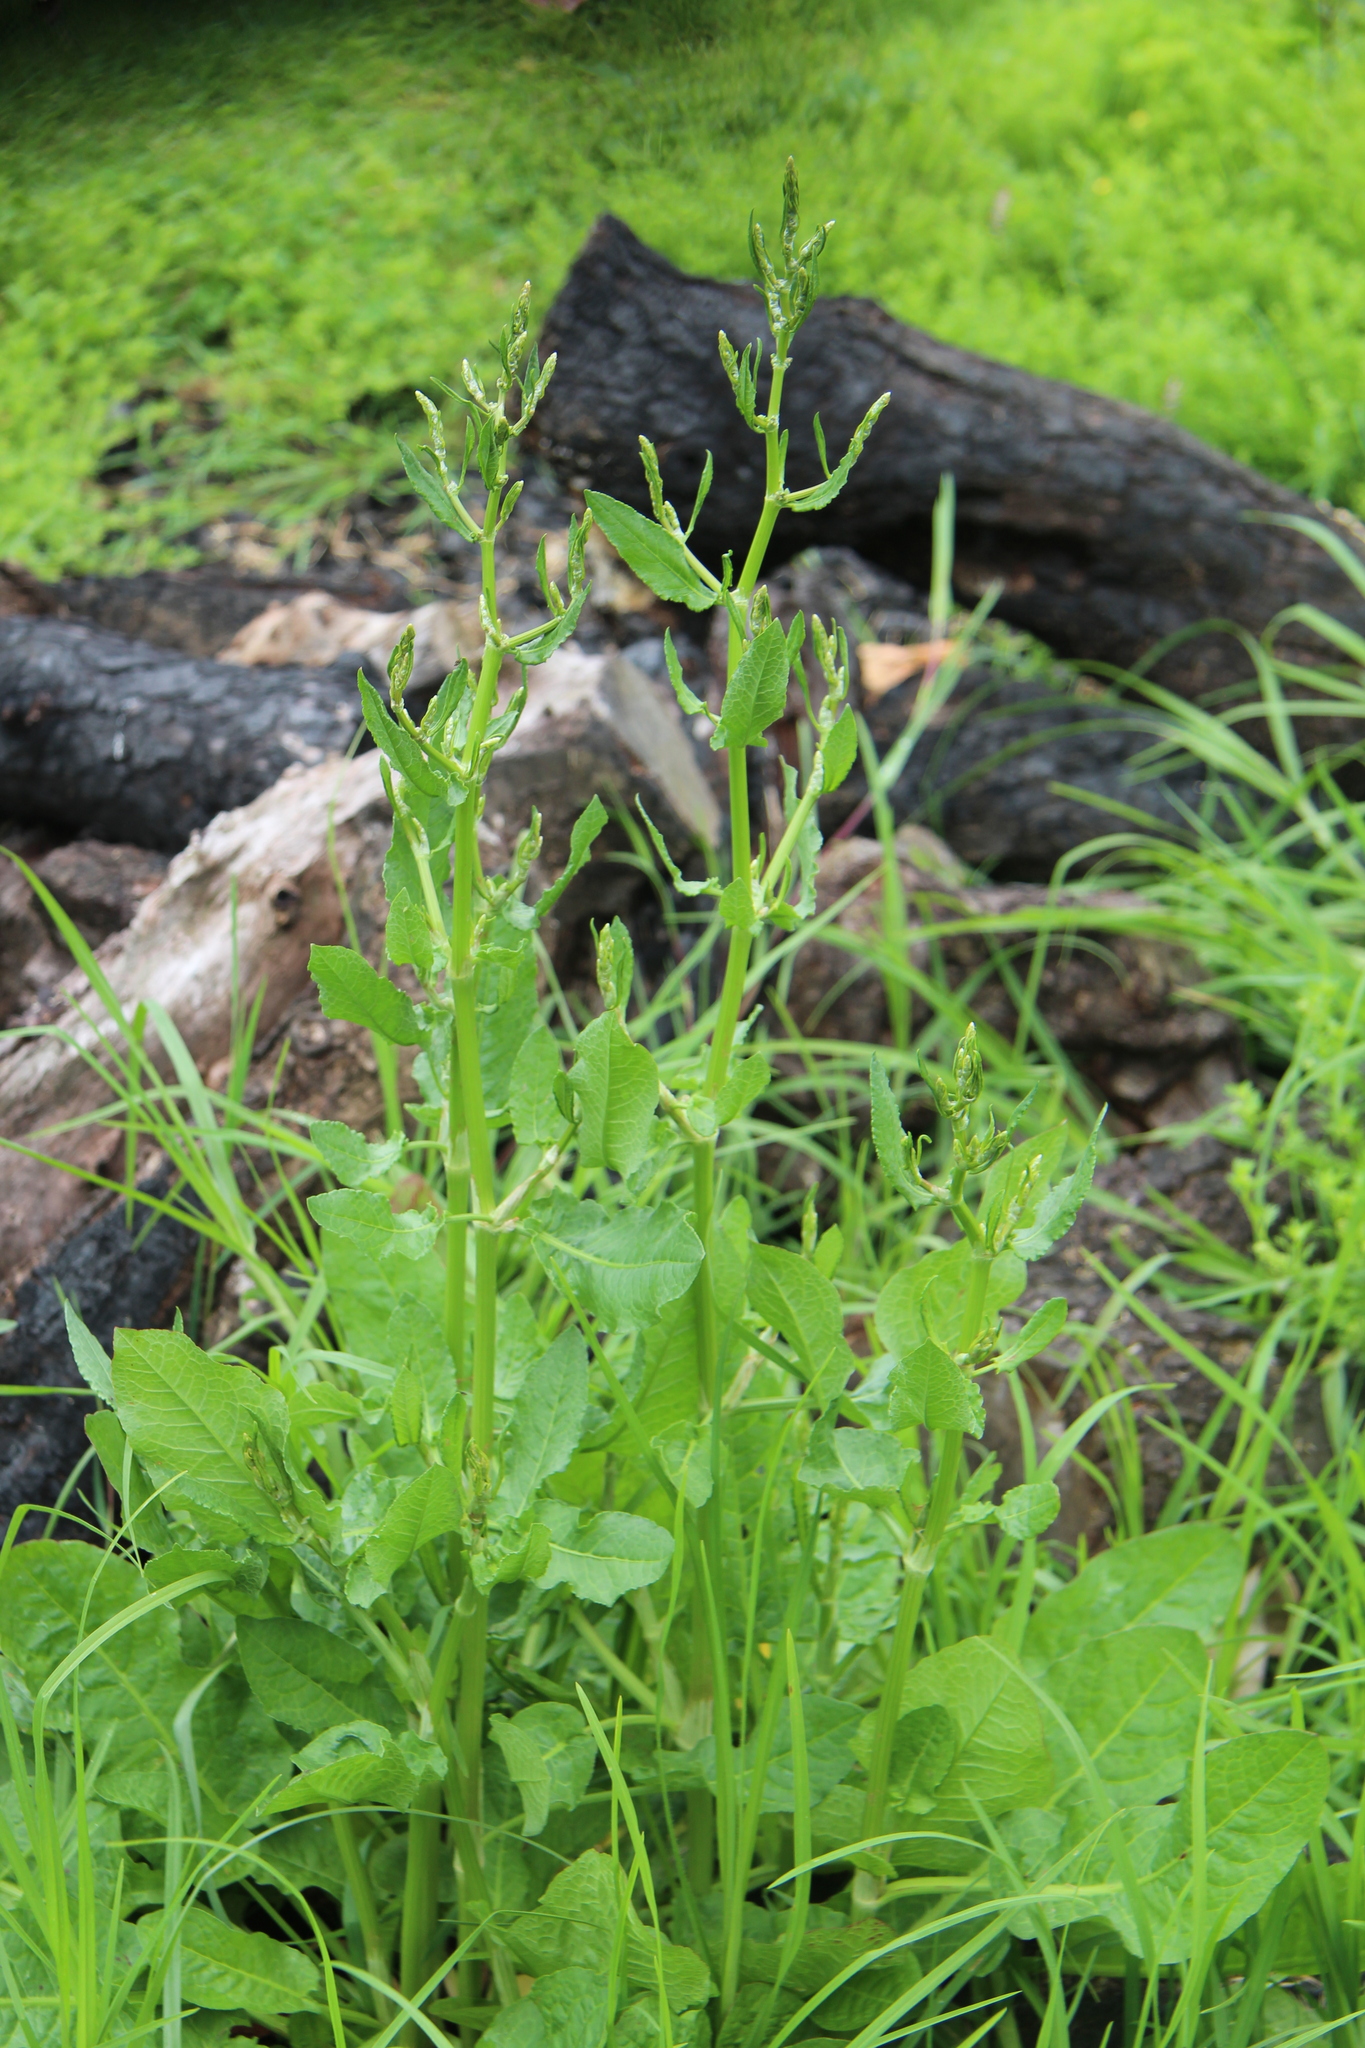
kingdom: Plantae
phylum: Tracheophyta
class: Magnoliopsida
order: Caryophyllales
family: Polygonaceae
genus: Rumex
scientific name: Rumex pulcher
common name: Fiddle dock
